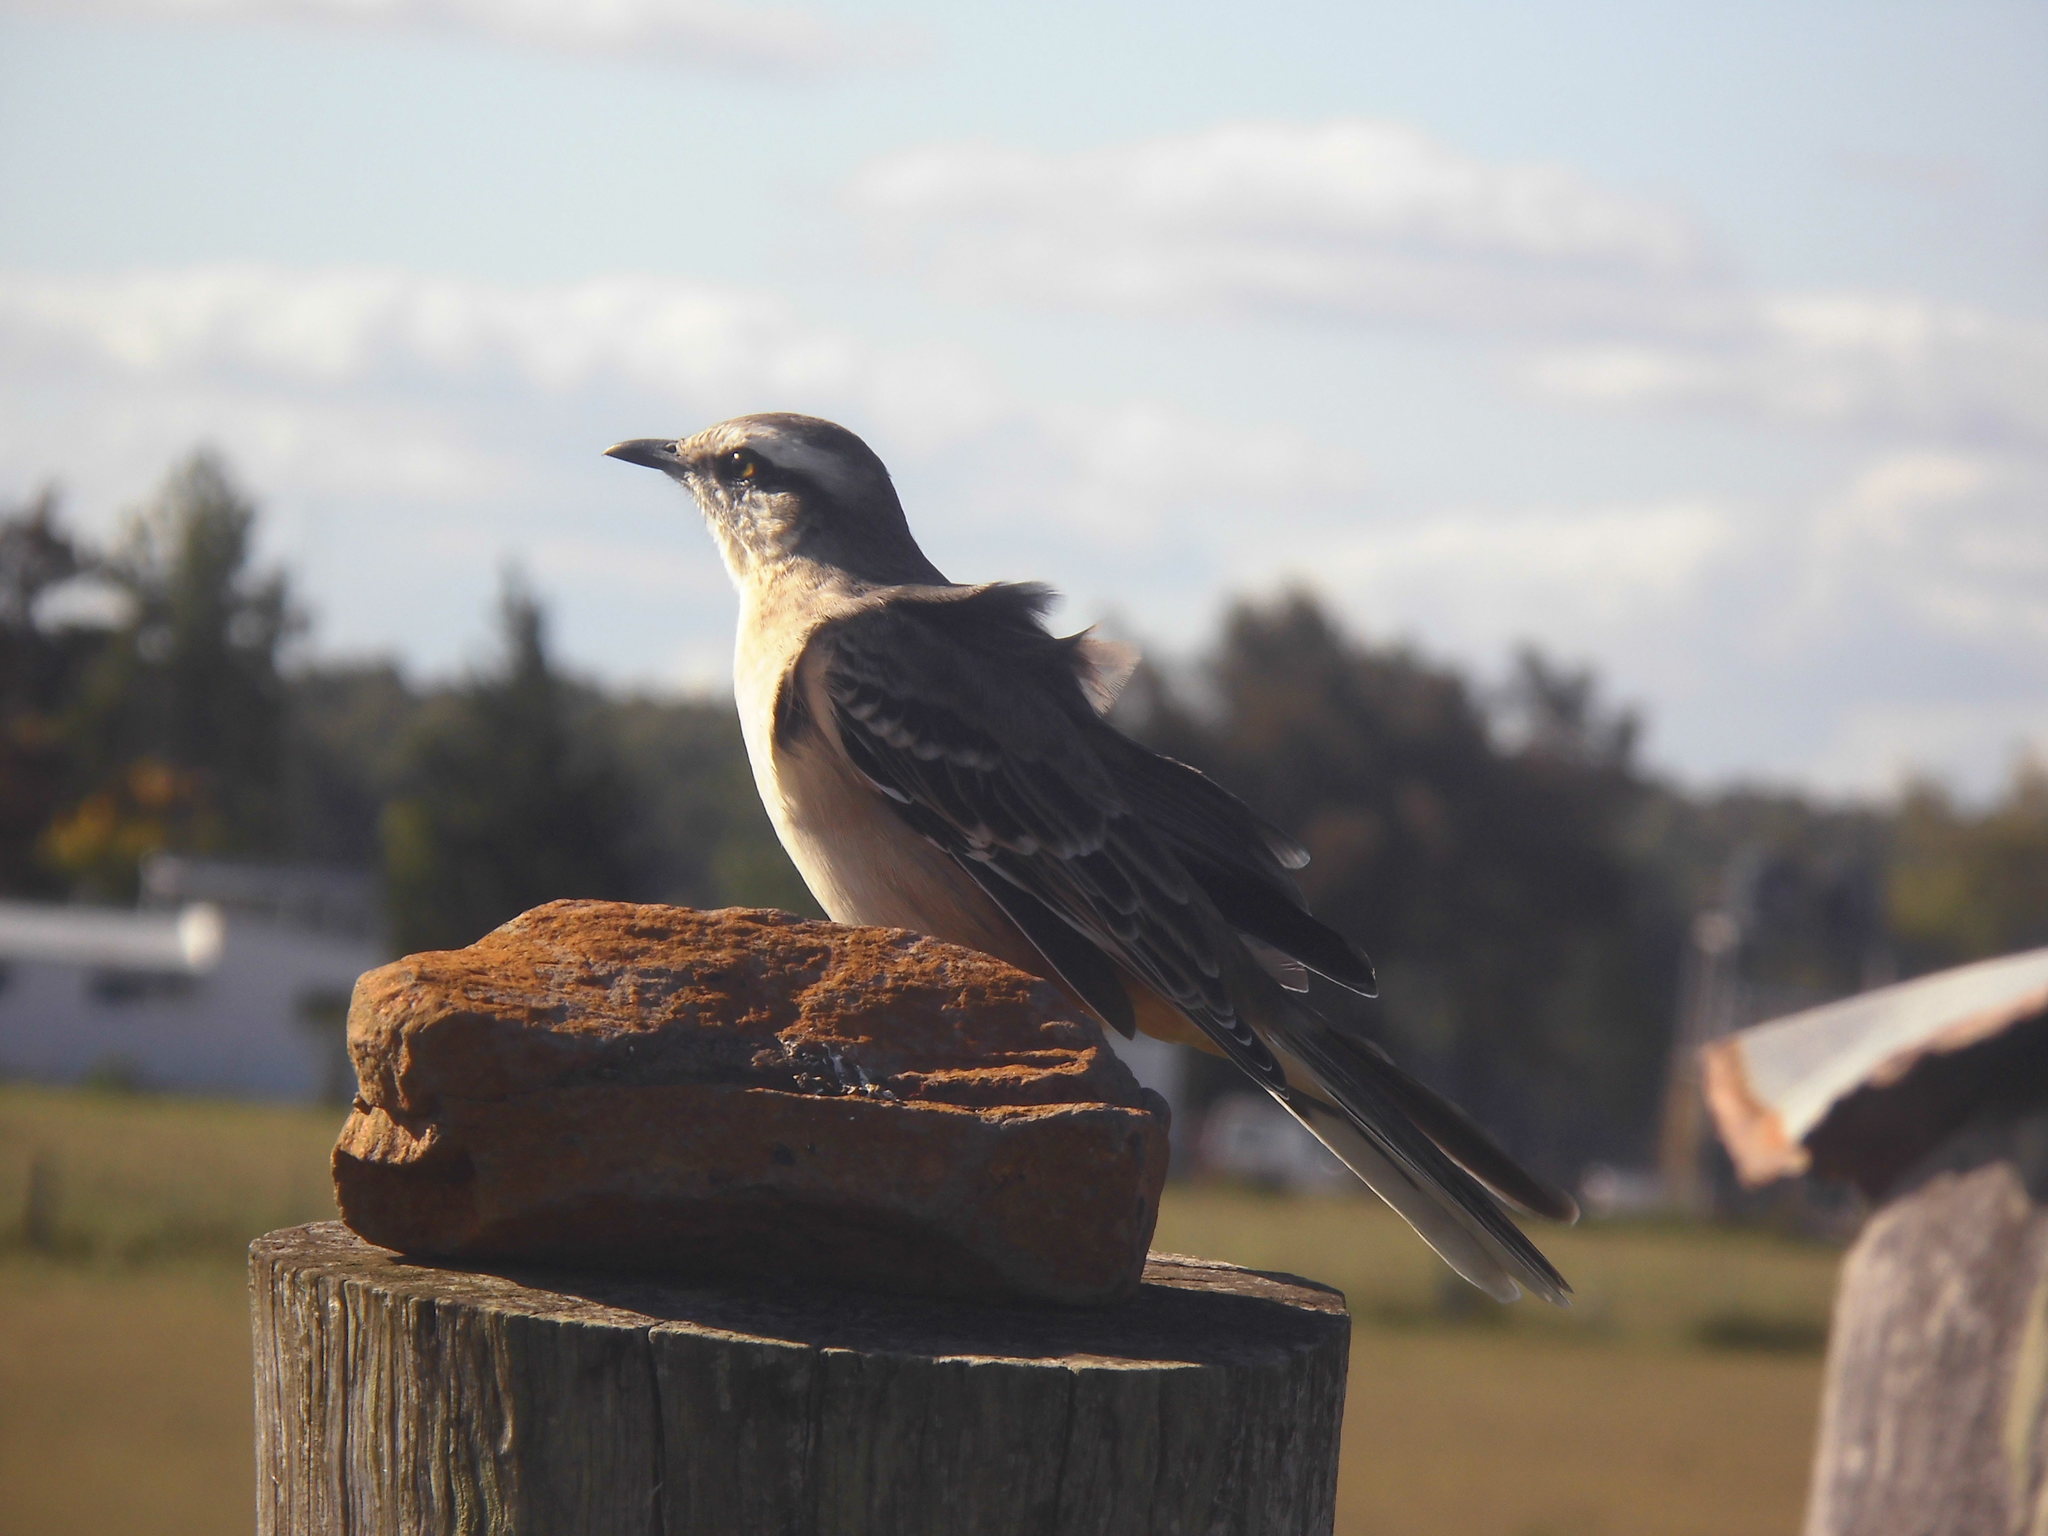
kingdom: Animalia
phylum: Chordata
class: Aves
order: Passeriformes
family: Mimidae
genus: Mimus
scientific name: Mimus saturninus
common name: Chalk-browed mockingbird
